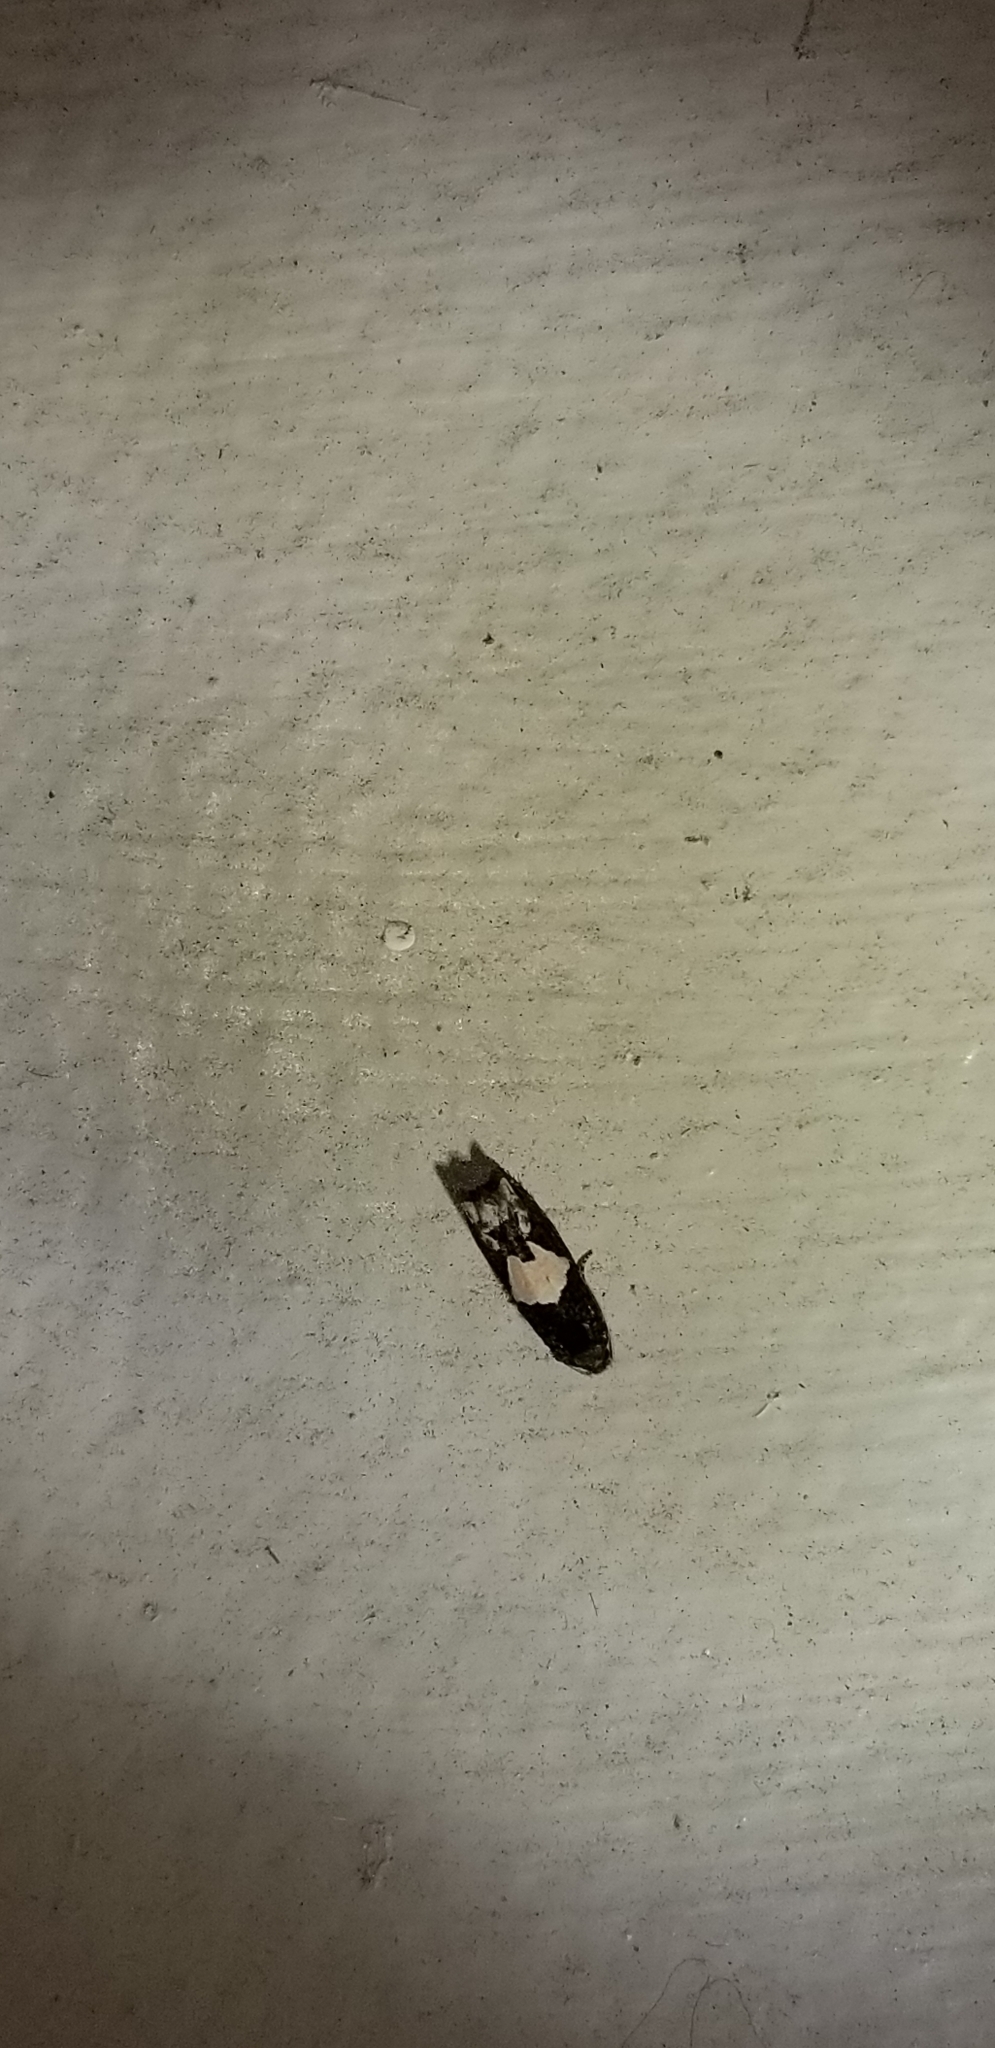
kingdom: Animalia
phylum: Arthropoda
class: Insecta
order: Lepidoptera
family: Tortricidae
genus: Epiblema
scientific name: Epiblema otiosana
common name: Bidens borer moth
